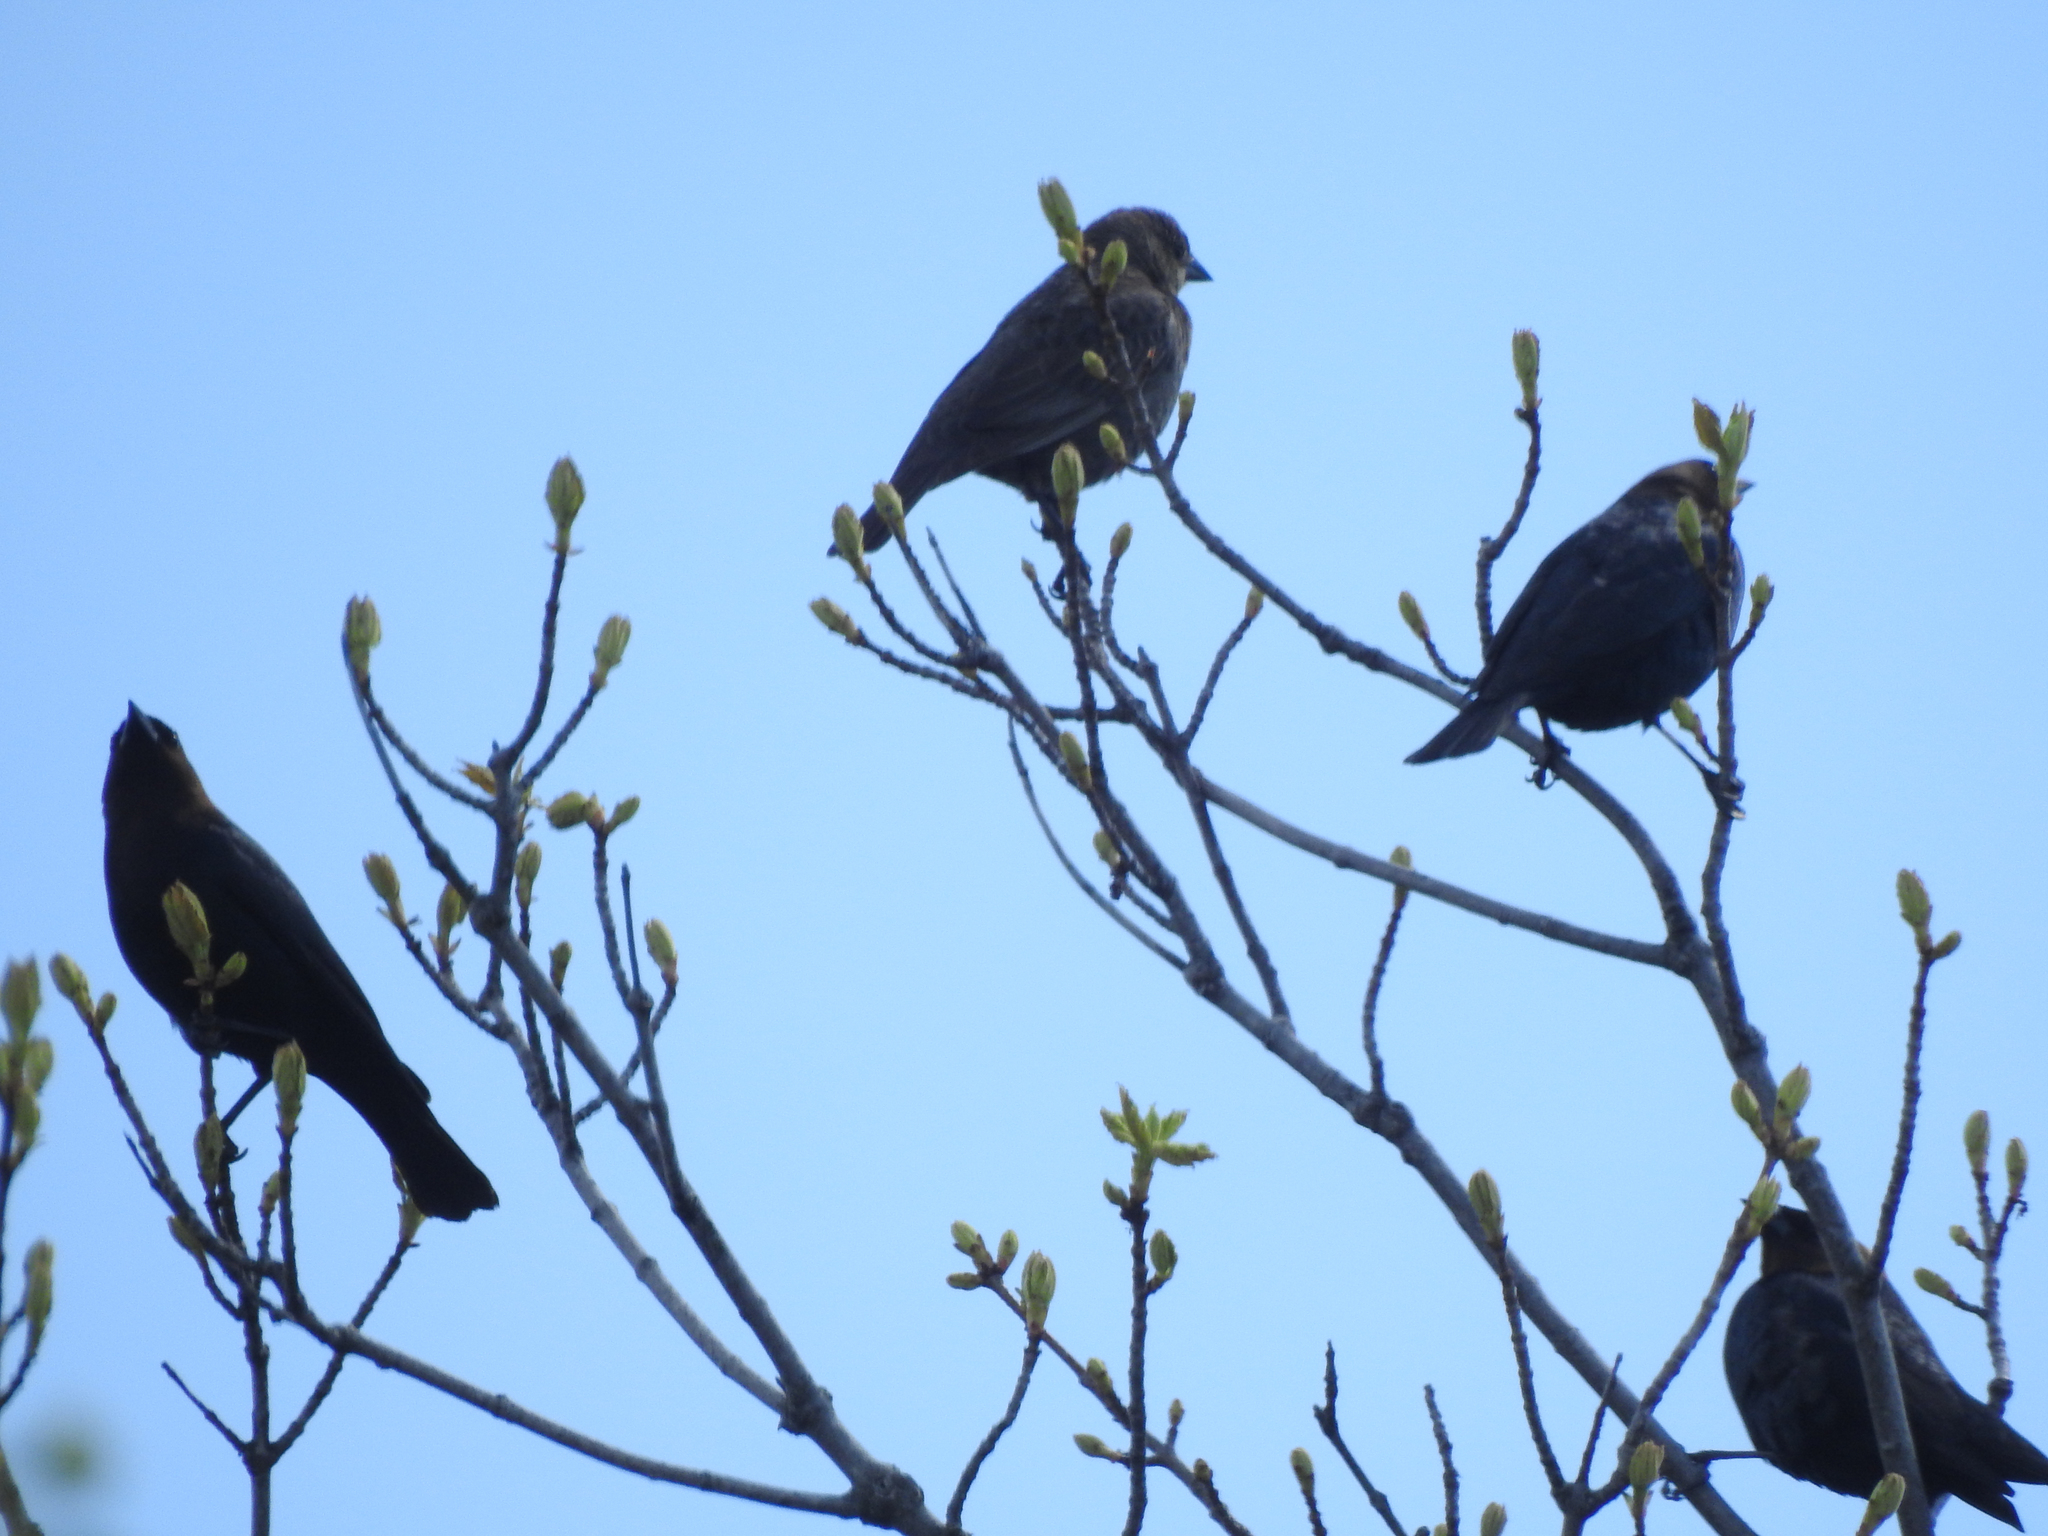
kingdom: Animalia
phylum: Chordata
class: Aves
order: Passeriformes
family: Icteridae
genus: Molothrus
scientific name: Molothrus ater
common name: Brown-headed cowbird
